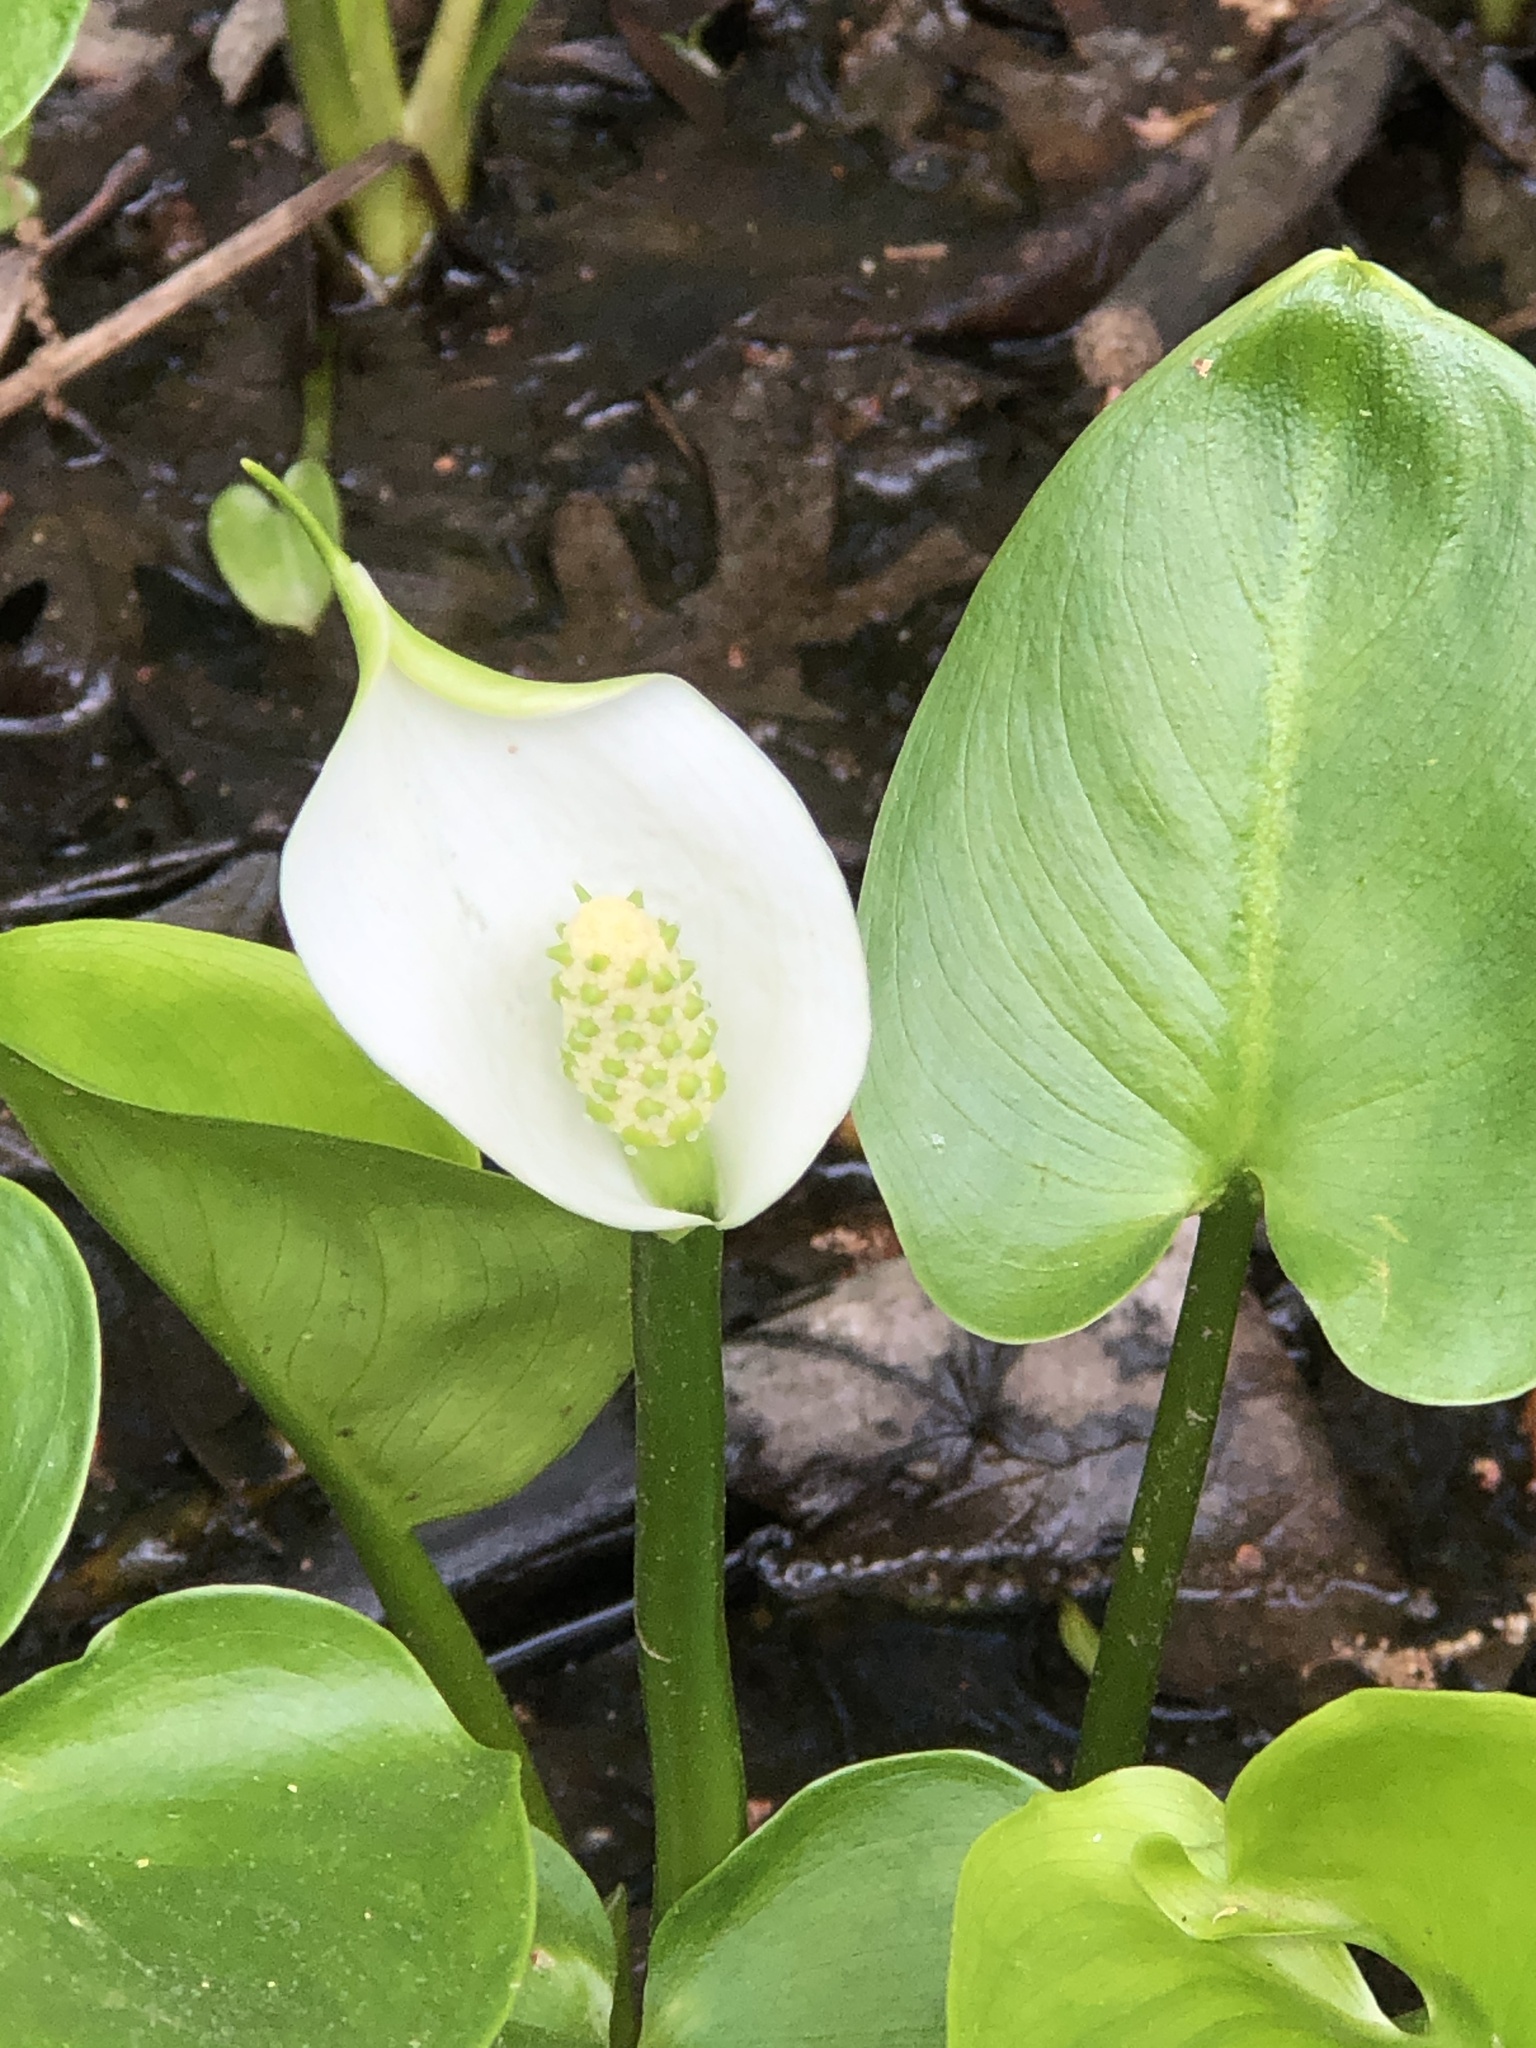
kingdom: Plantae
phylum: Tracheophyta
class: Liliopsida
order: Alismatales
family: Araceae
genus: Calla
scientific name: Calla palustris
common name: Bog arum
